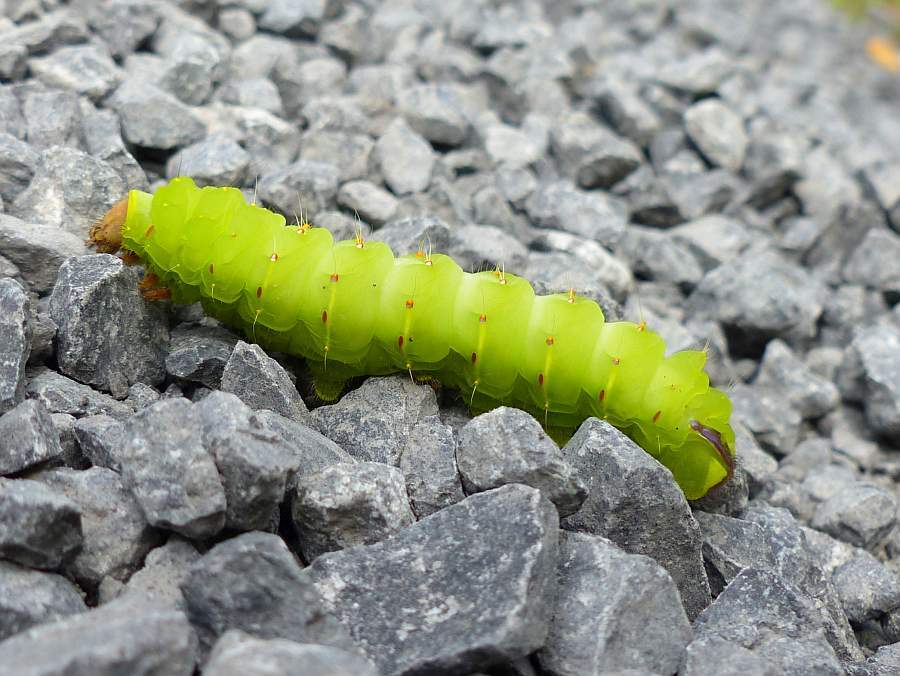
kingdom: Animalia
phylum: Arthropoda
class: Insecta
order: Lepidoptera
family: Saturniidae
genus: Antheraea
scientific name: Antheraea polyphemus
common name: Polyphemus moth
